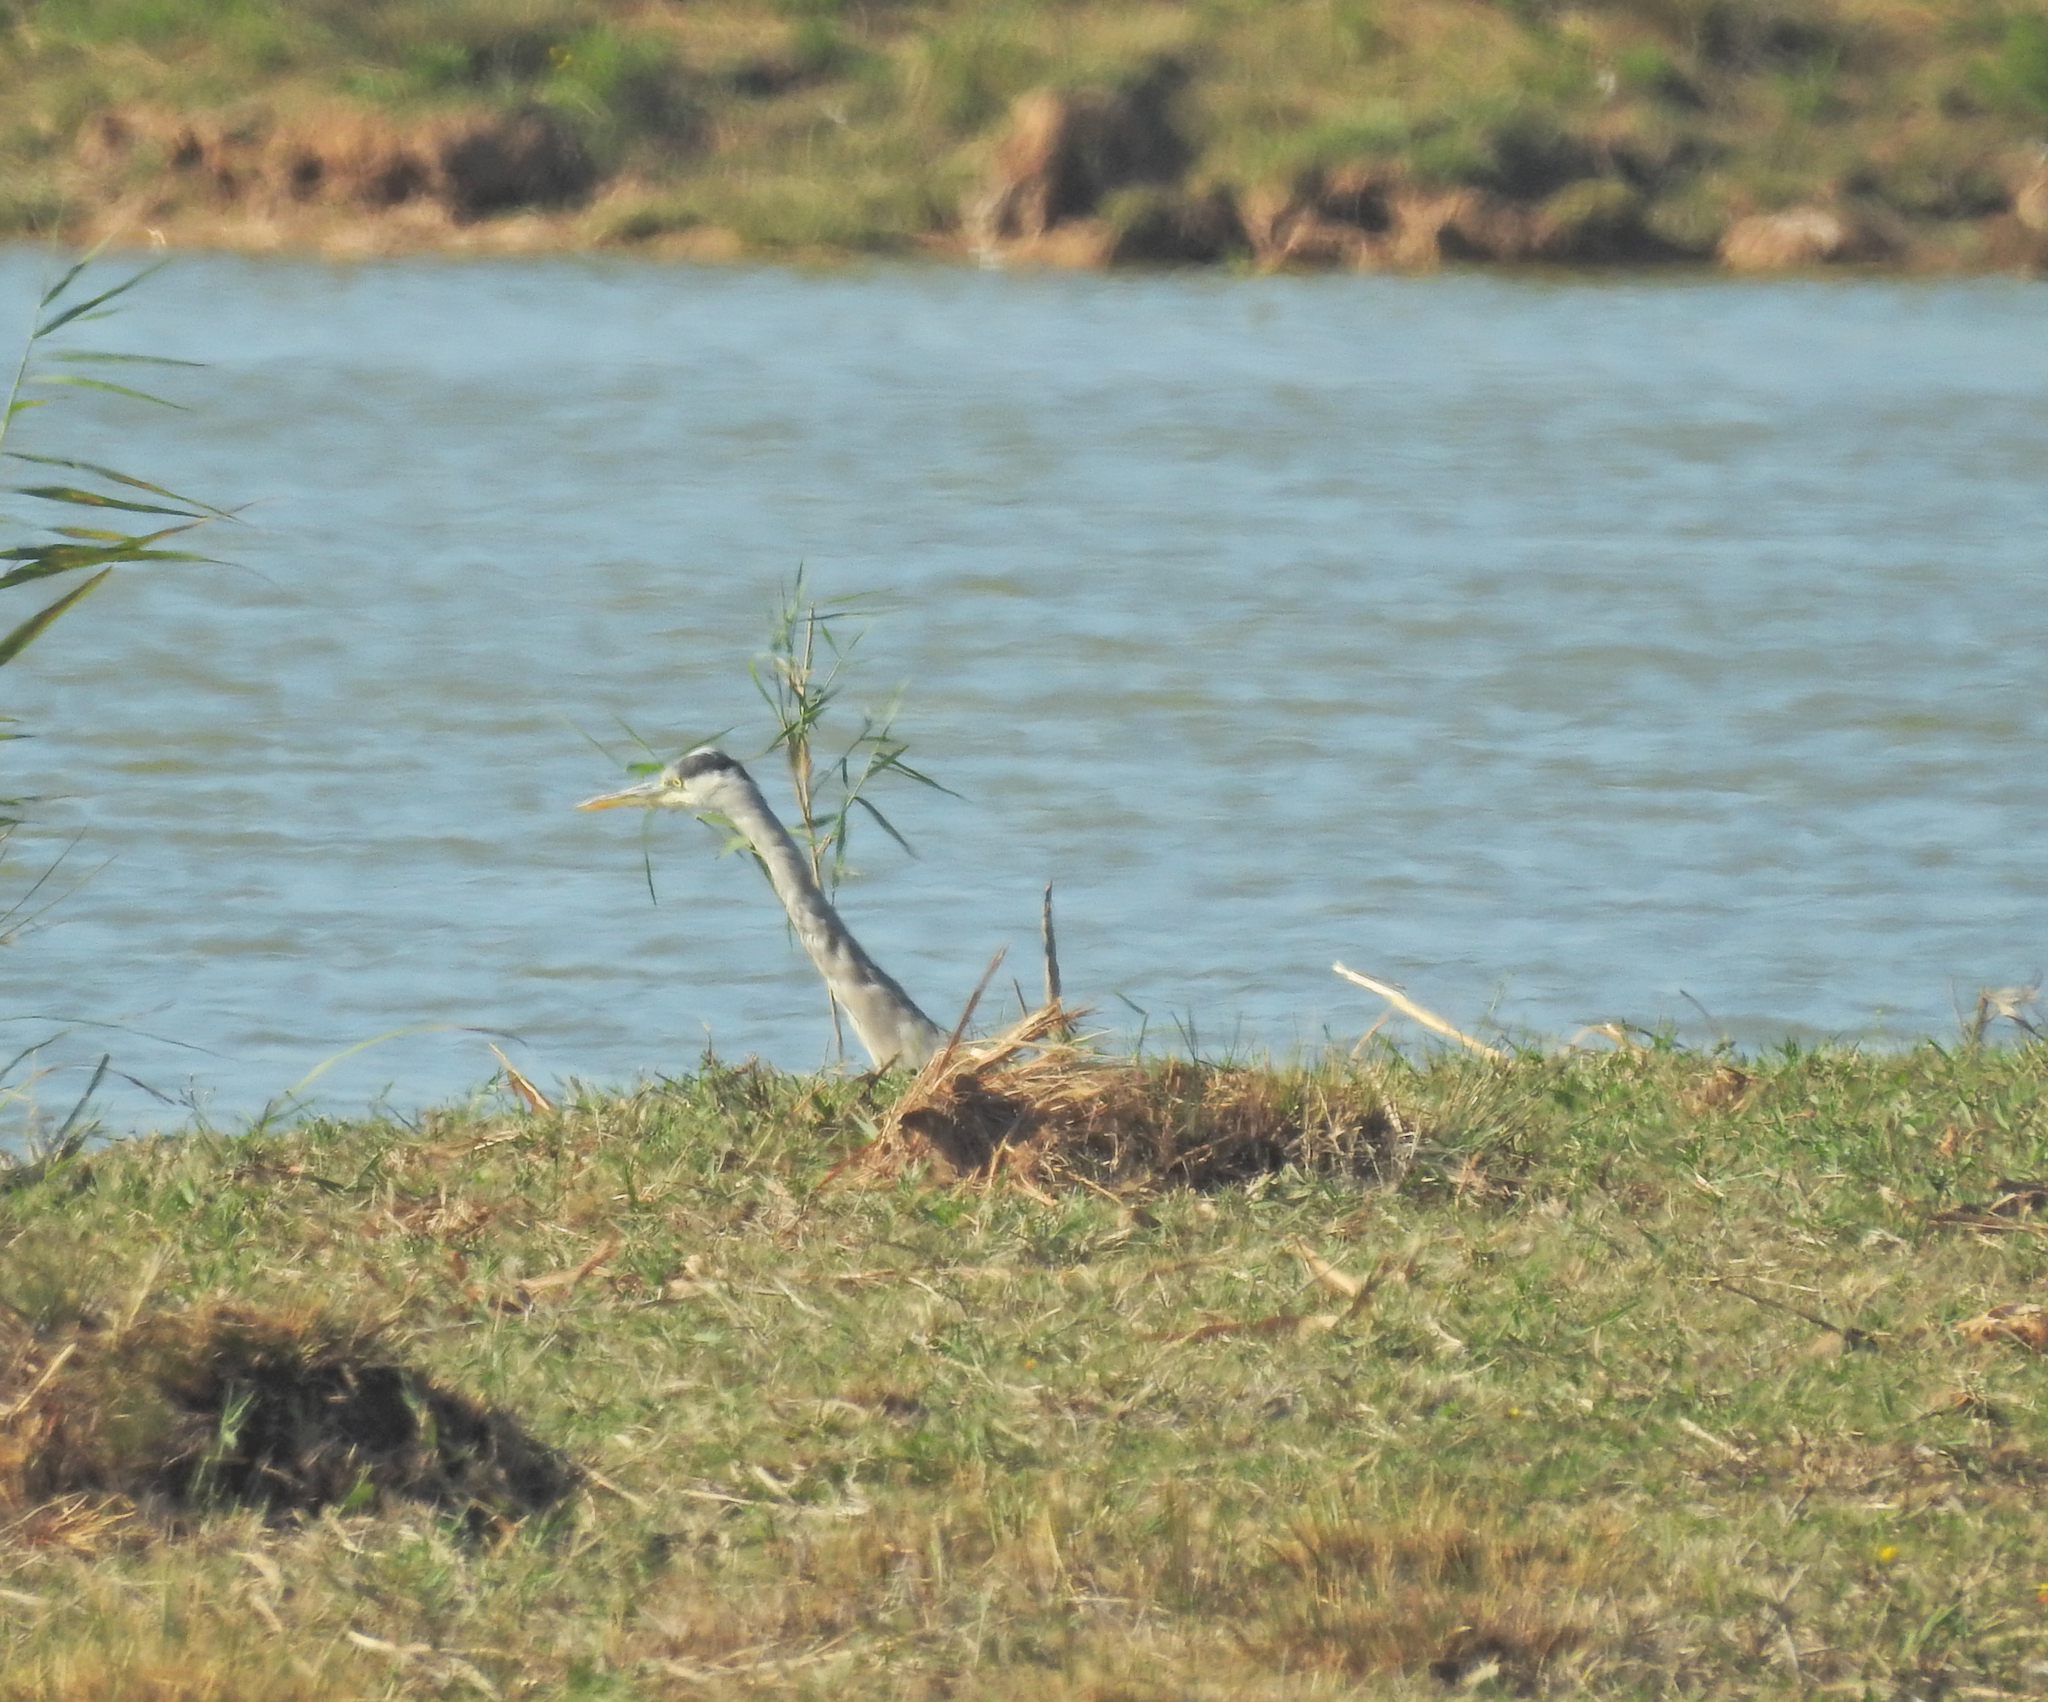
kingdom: Animalia
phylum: Chordata
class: Aves
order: Pelecaniformes
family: Ardeidae
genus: Ardea
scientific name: Ardea cinerea
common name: Grey heron
